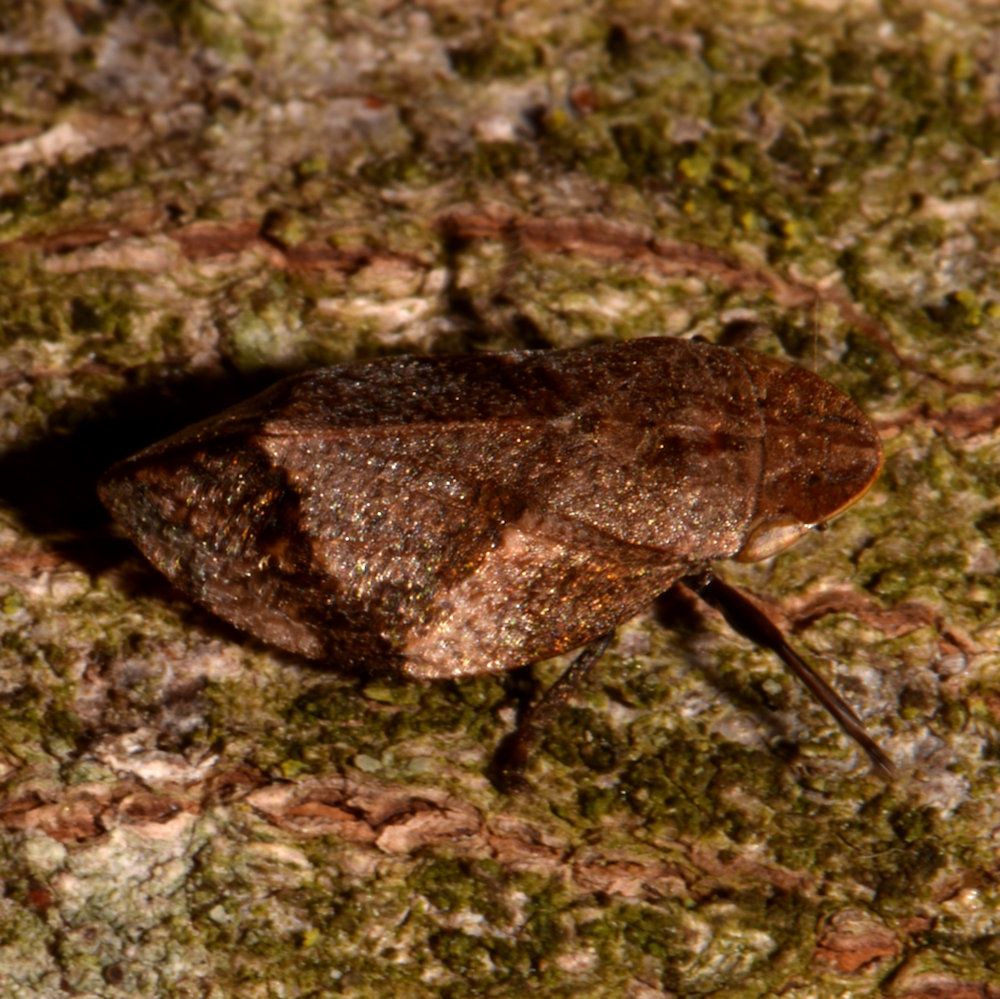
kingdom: Animalia
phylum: Arthropoda
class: Insecta
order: Hemiptera
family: Aphrophoridae
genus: Lepyronia
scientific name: Lepyronia quadrangularis
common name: Diamond-backed spittlebug
